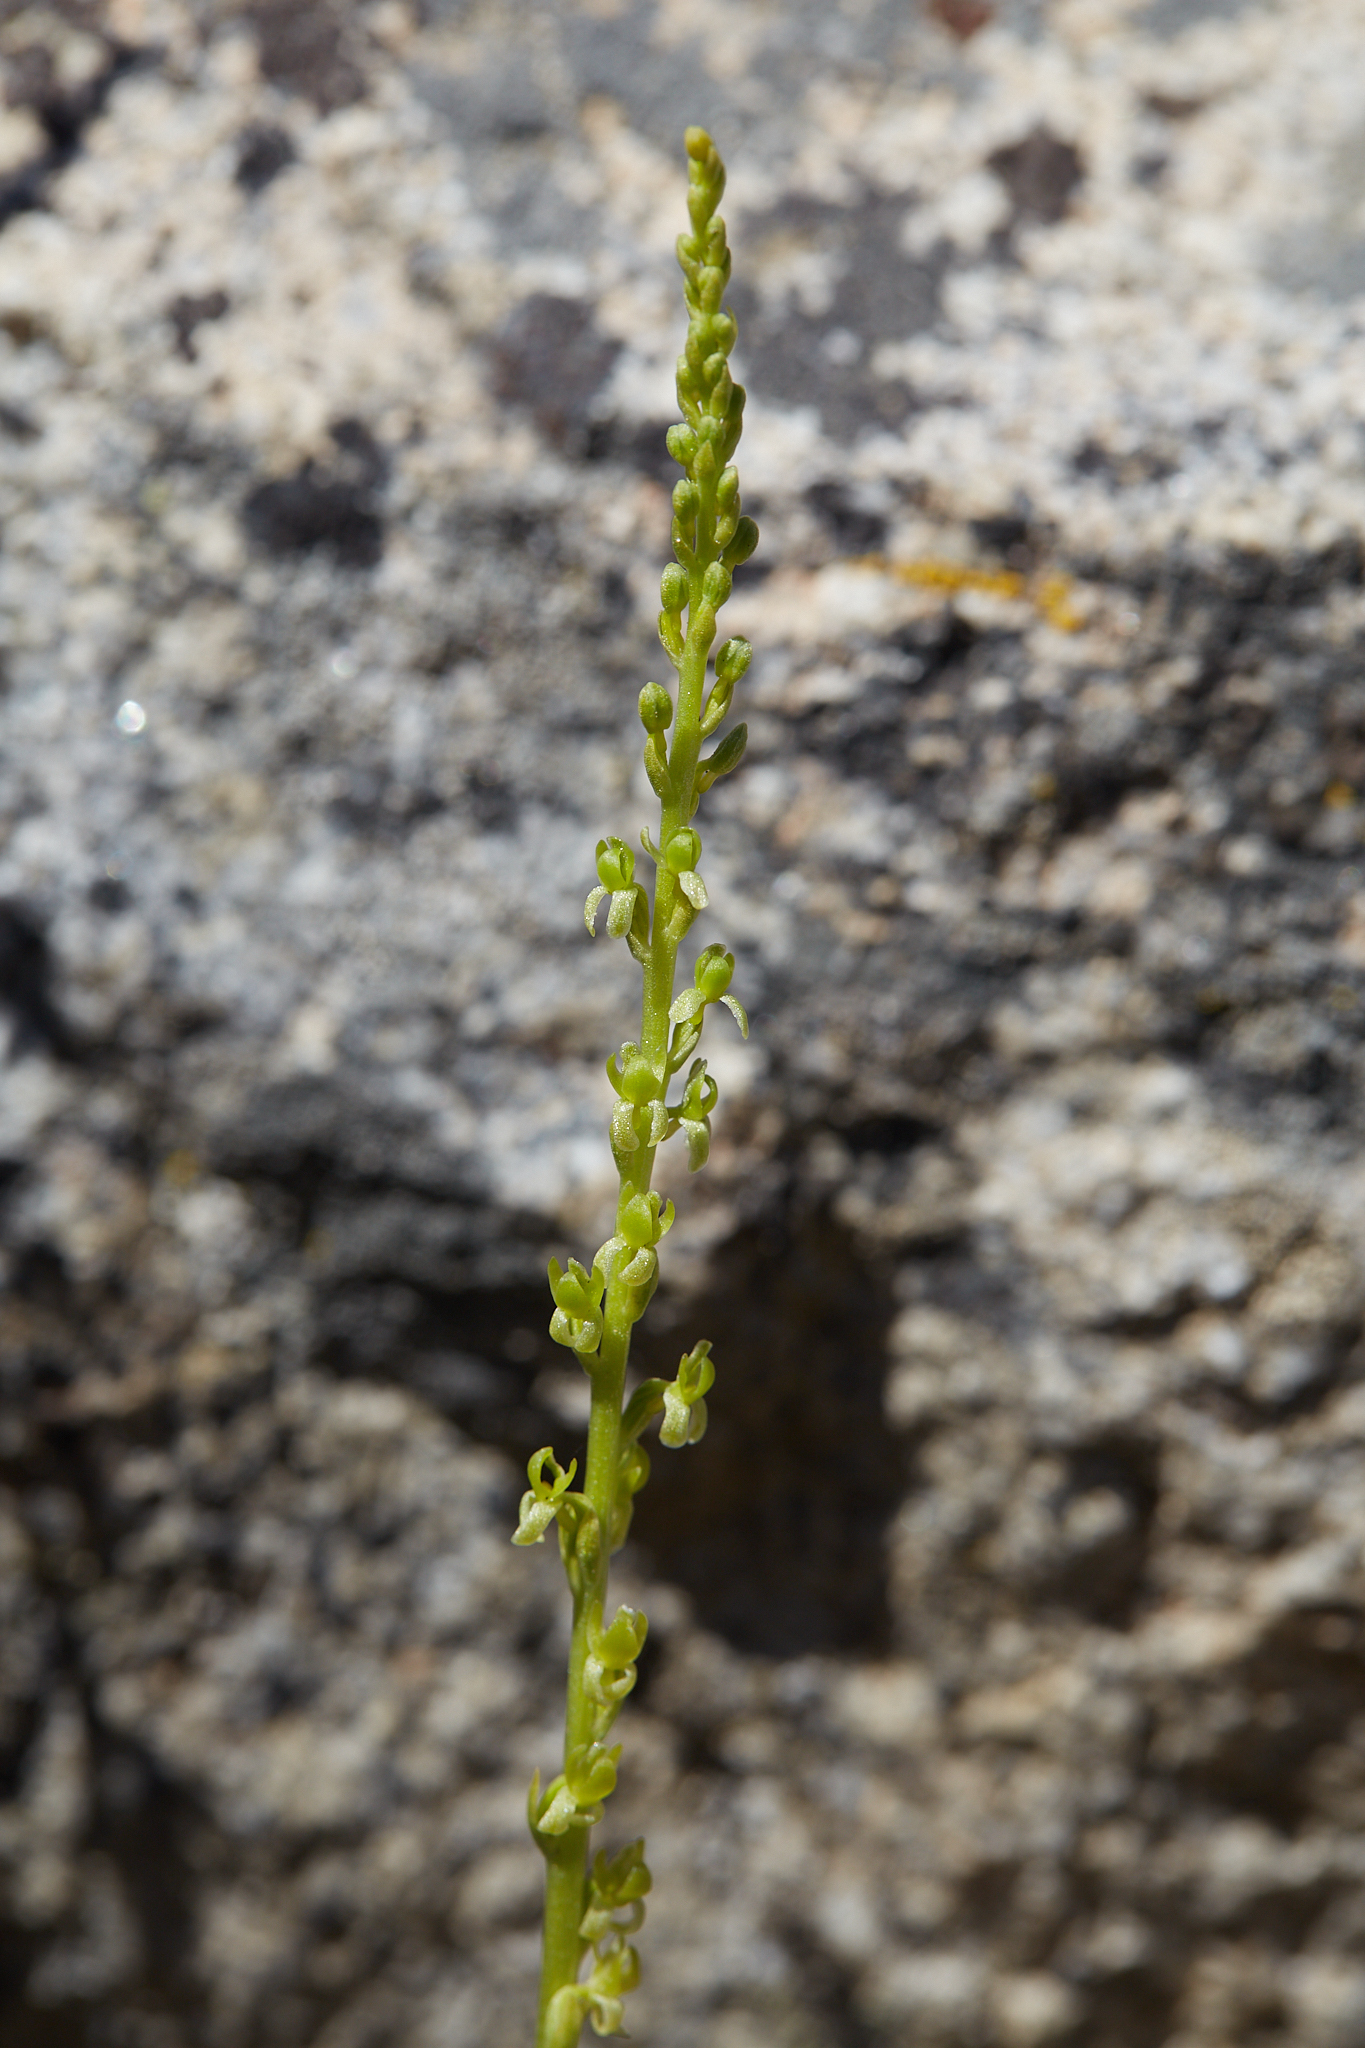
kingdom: Plantae
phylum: Tracheophyta
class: Liliopsida
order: Asparagales
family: Orchidaceae
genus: Platanthera
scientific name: Platanthera colemanii
